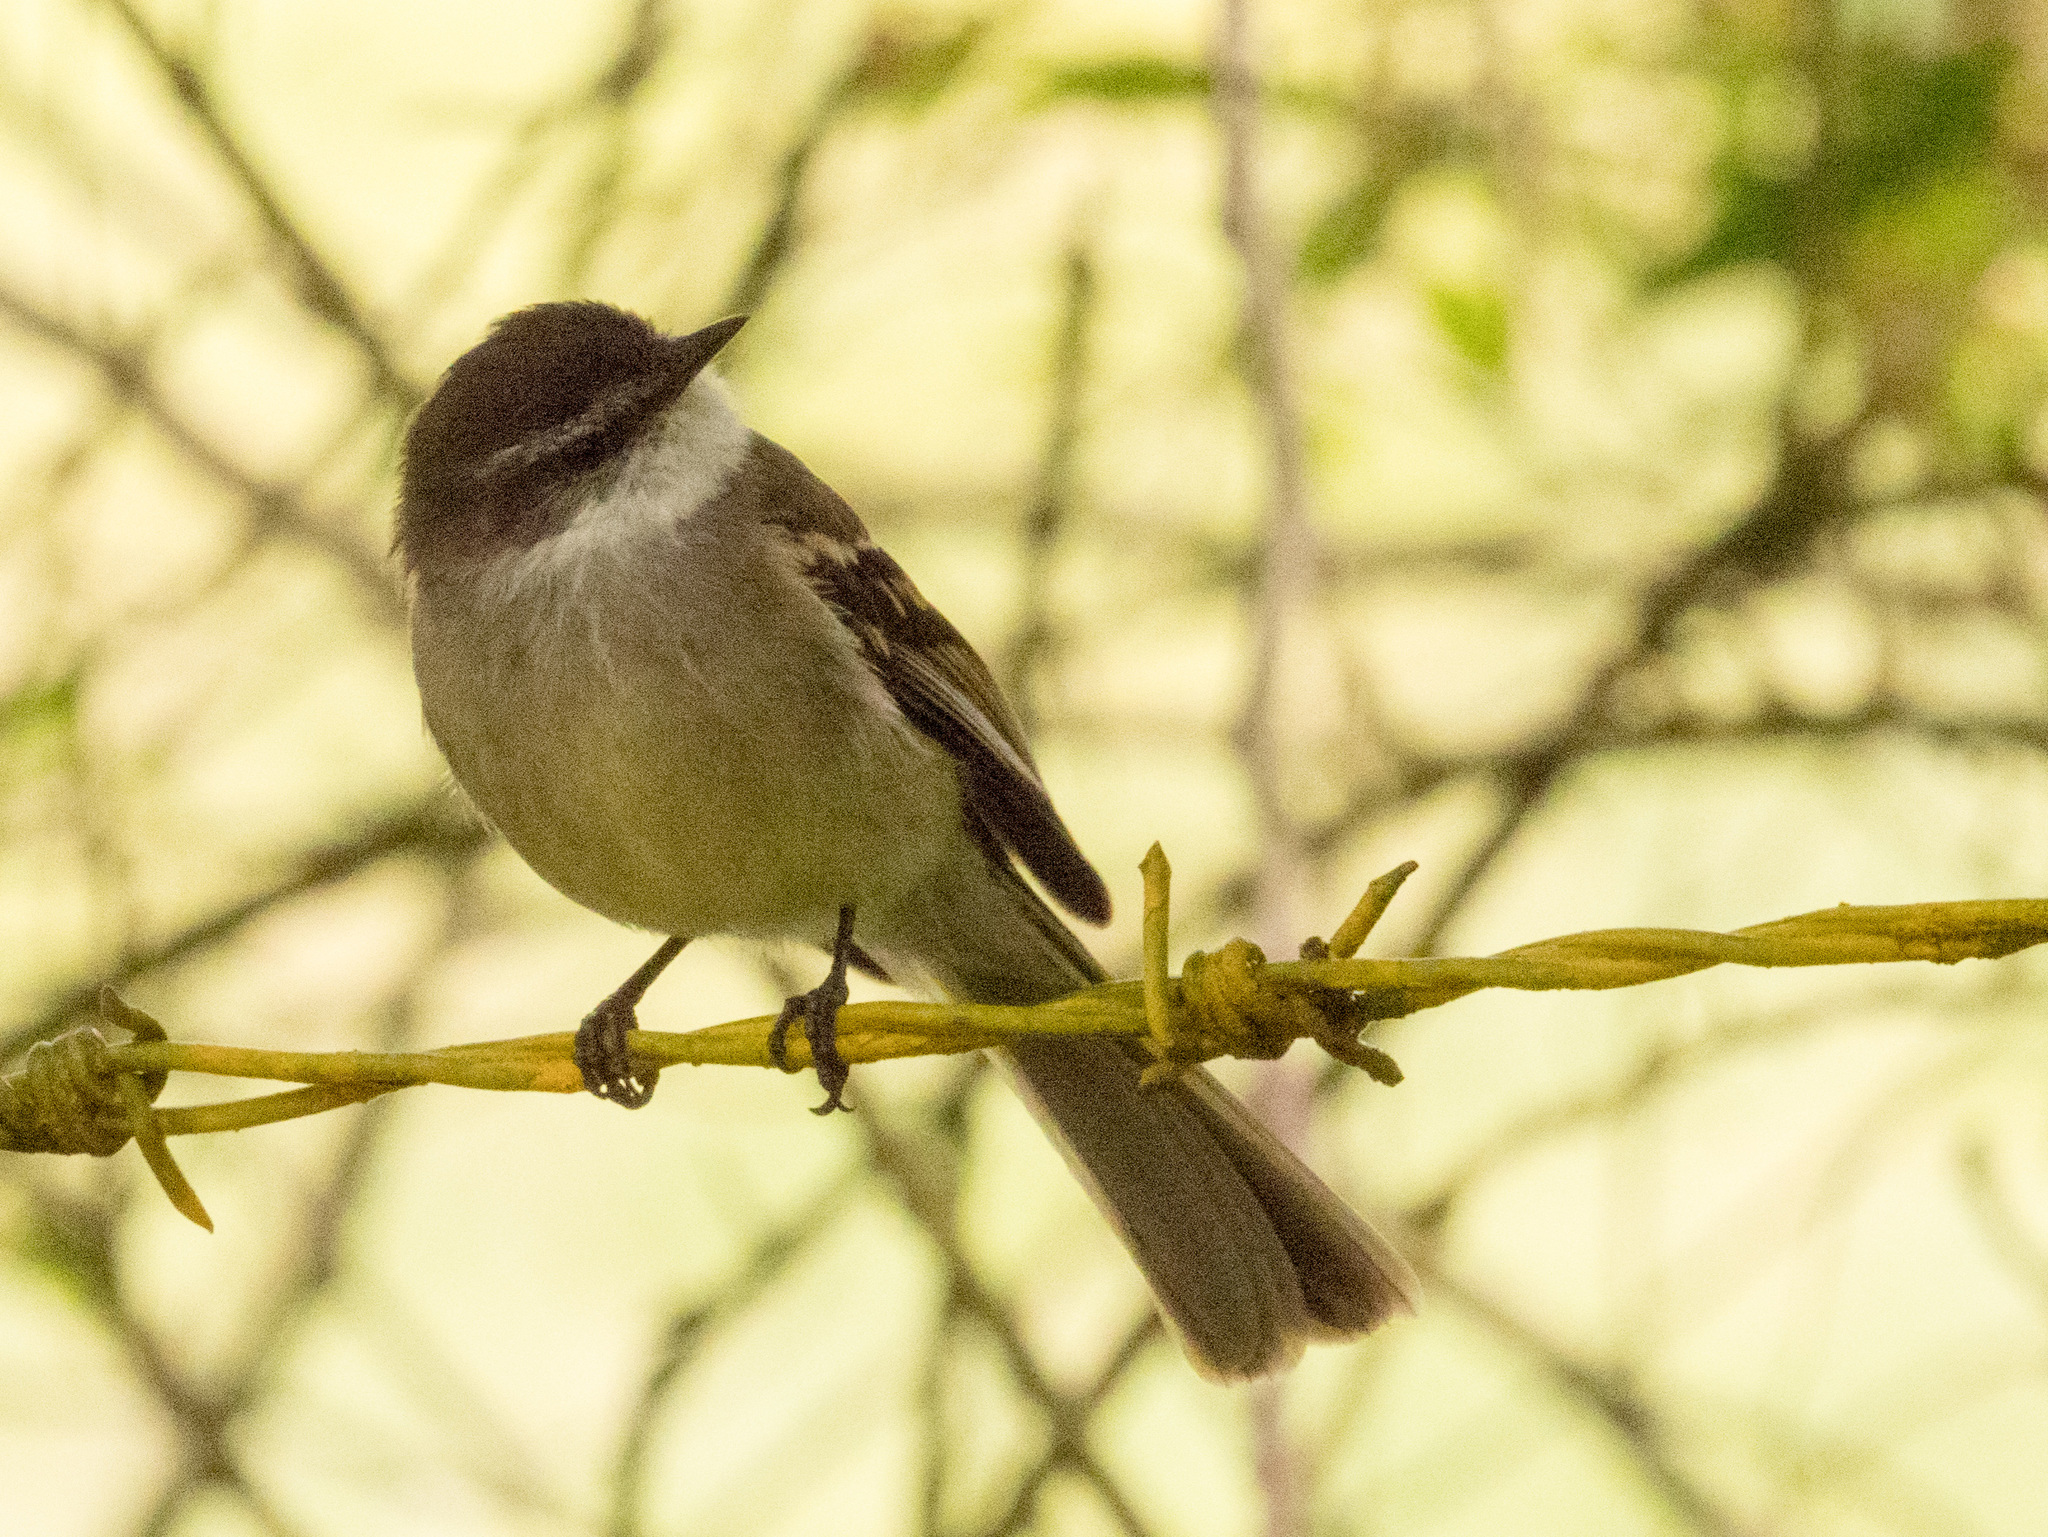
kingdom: Animalia
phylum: Chordata
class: Aves
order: Passeriformes
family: Tyrannidae
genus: Mecocerculus
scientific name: Mecocerculus leucophrys
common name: White-throated tyrannulet
